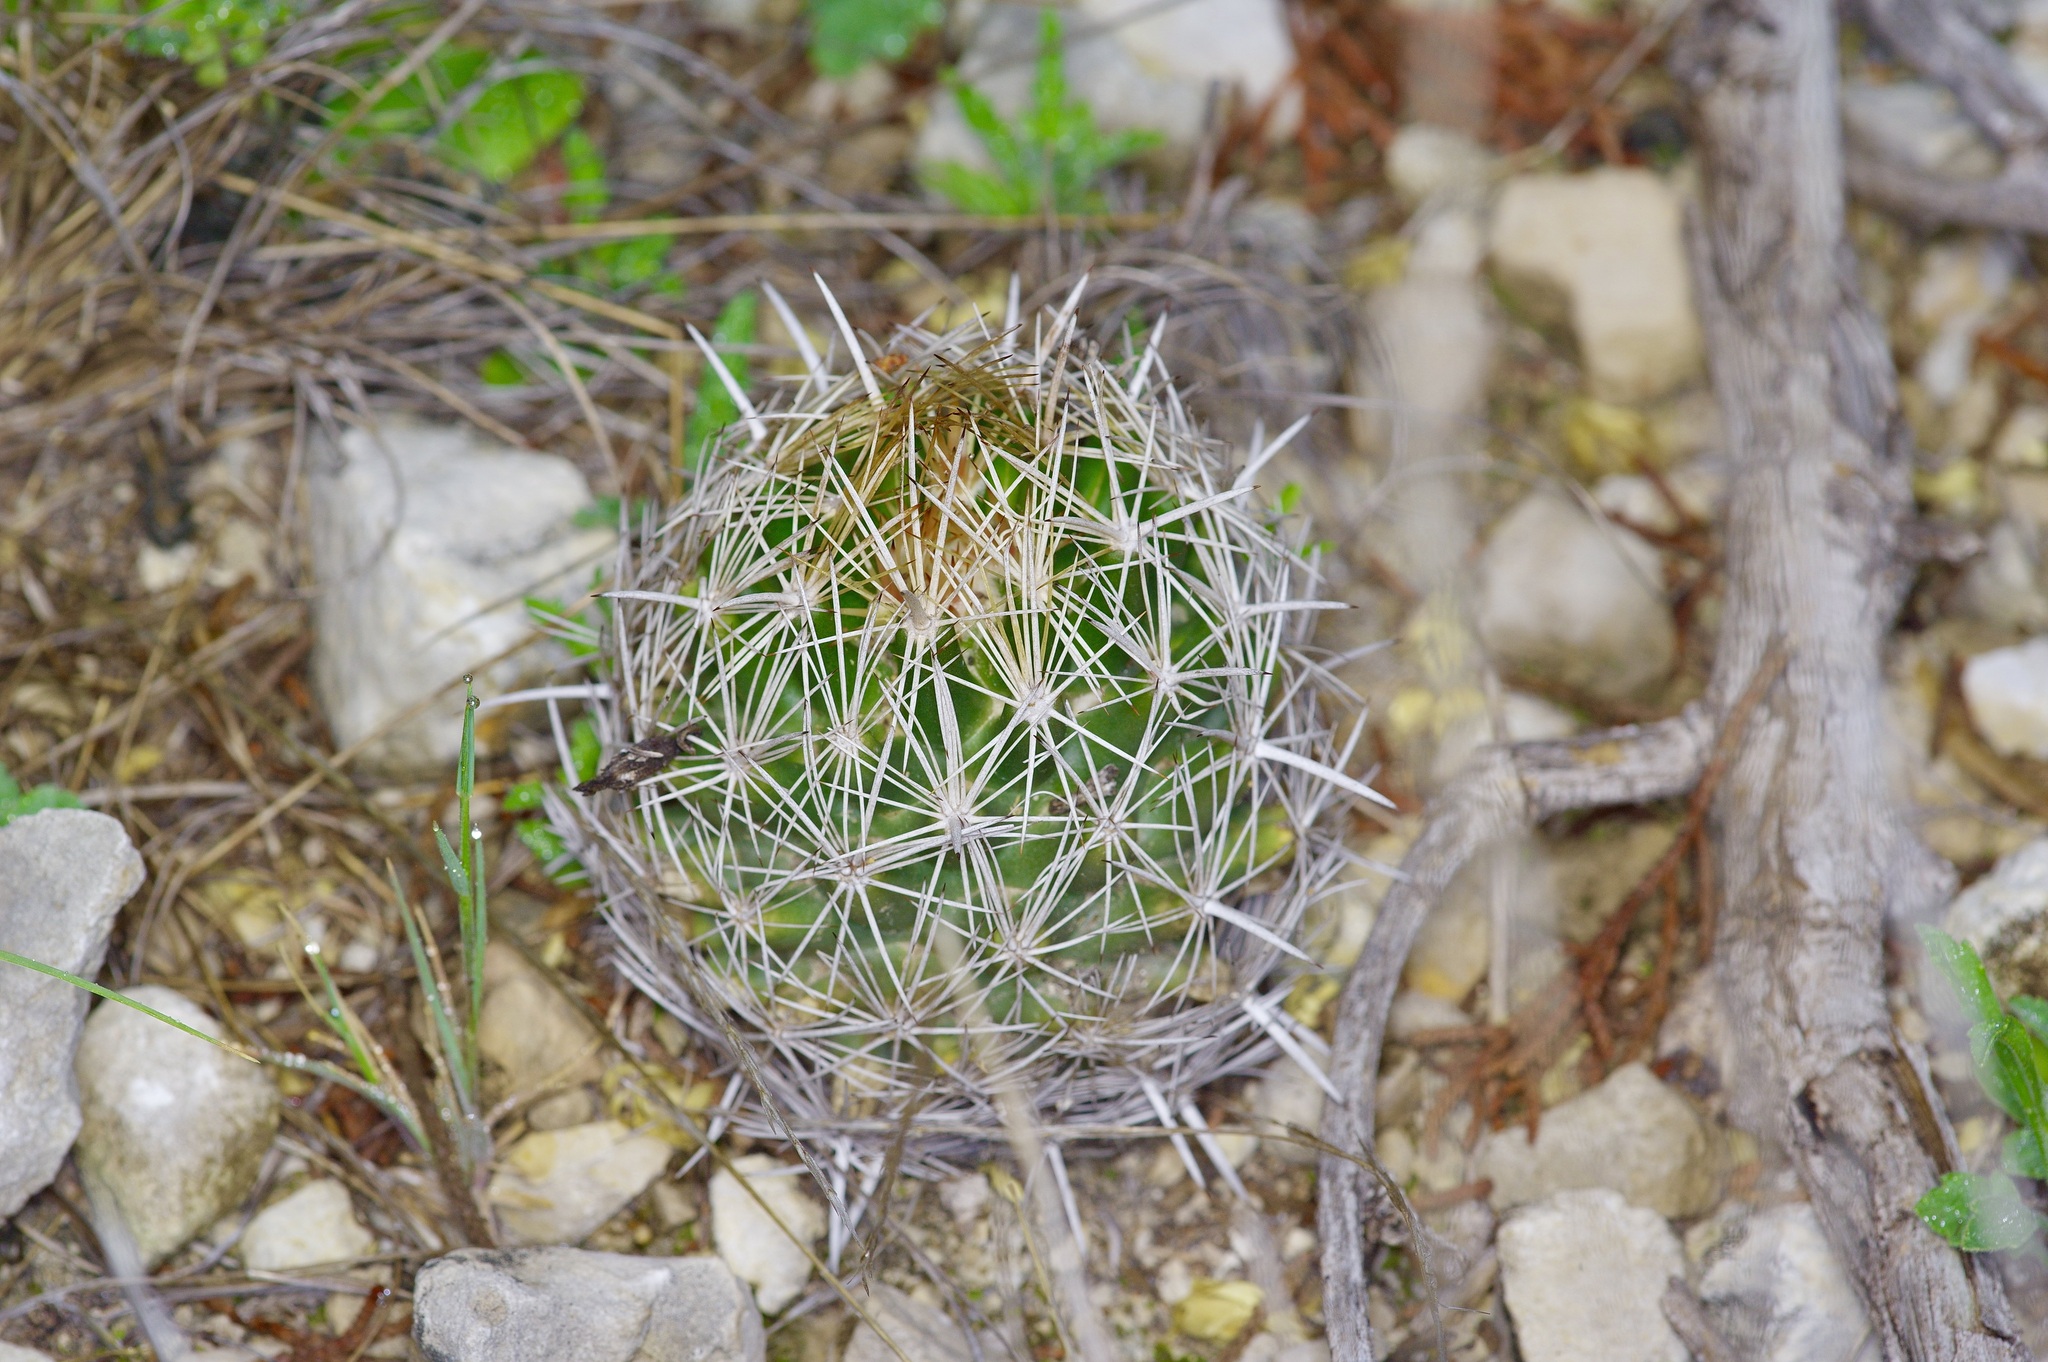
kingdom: Plantae
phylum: Tracheophyta
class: Magnoliopsida
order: Caryophyllales
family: Cactaceae
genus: Coryphantha
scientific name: Coryphantha sulcata
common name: Finger cactus
